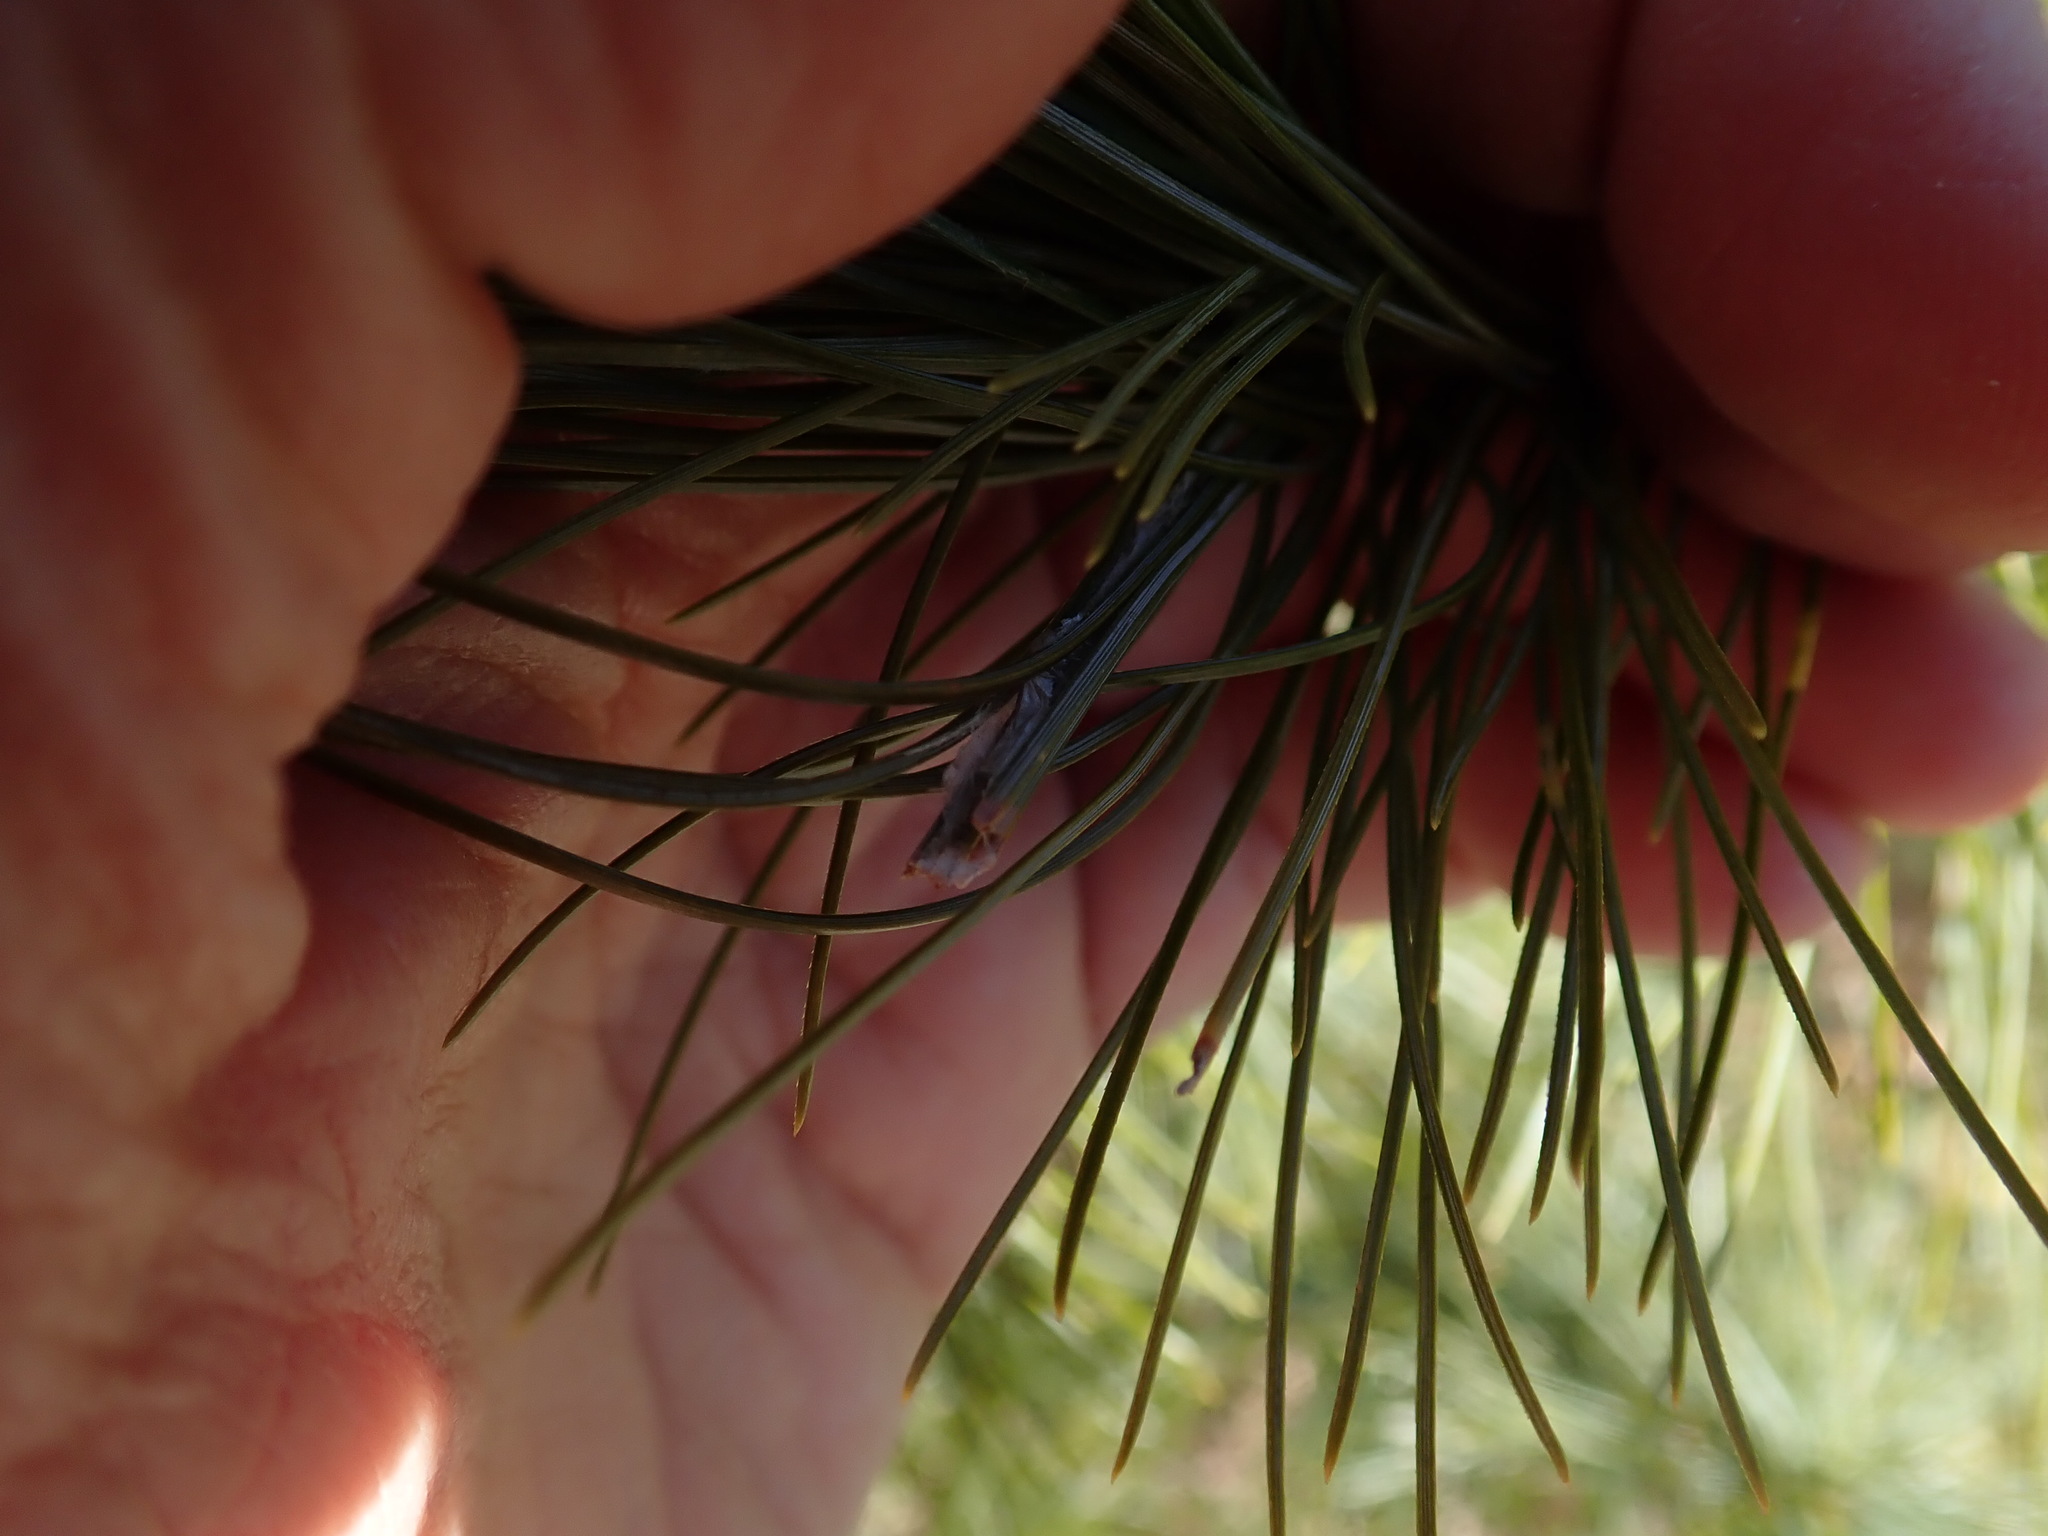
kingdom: Animalia
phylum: Arthropoda
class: Insecta
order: Lepidoptera
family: Tortricidae
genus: Argyrotaenia
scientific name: Argyrotaenia pinatubana
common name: Pine tube moth
